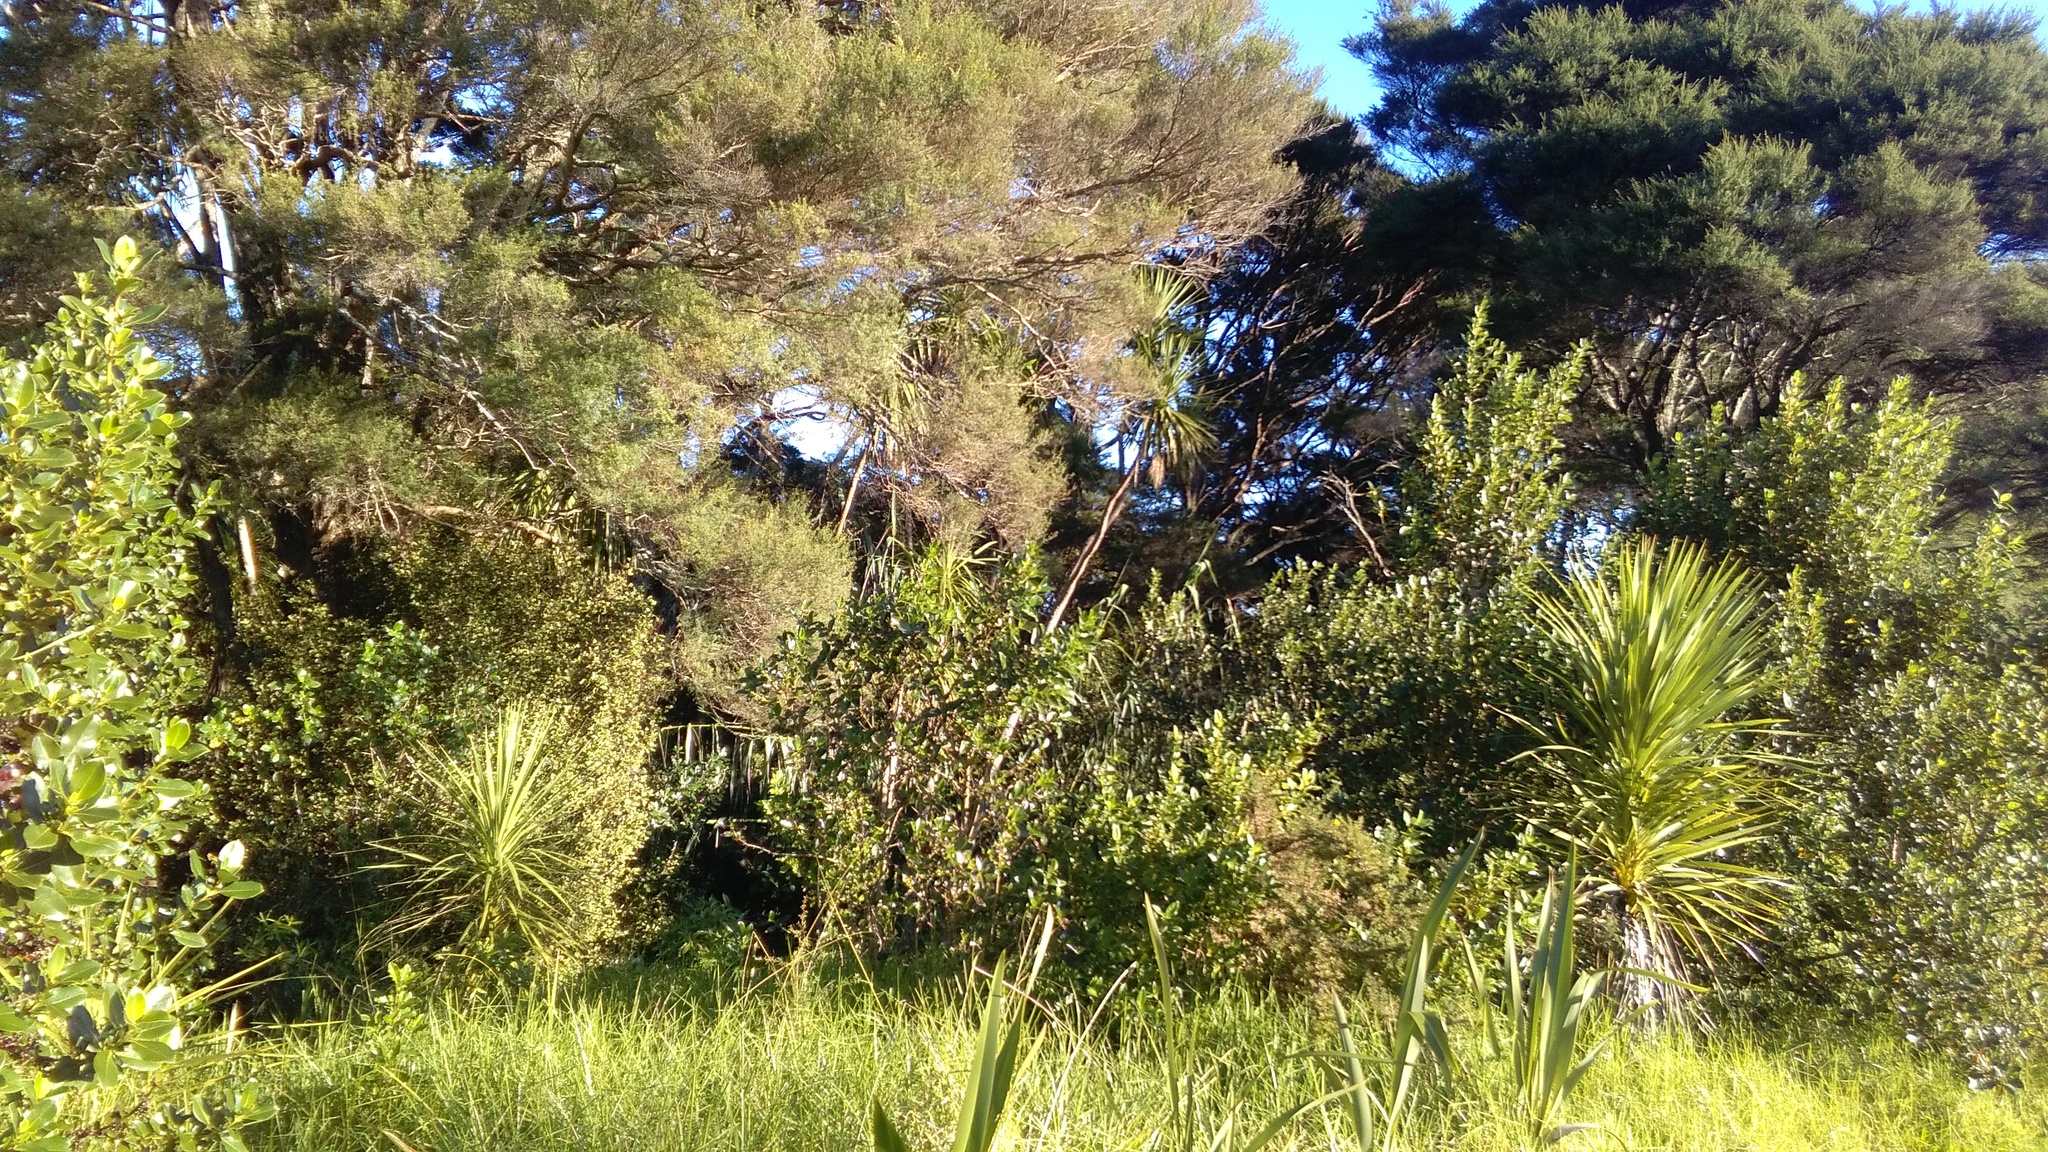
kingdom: Plantae
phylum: Tracheophyta
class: Liliopsida
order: Poales
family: Poaceae
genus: Arundo
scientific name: Arundo donax
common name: Giant reed
